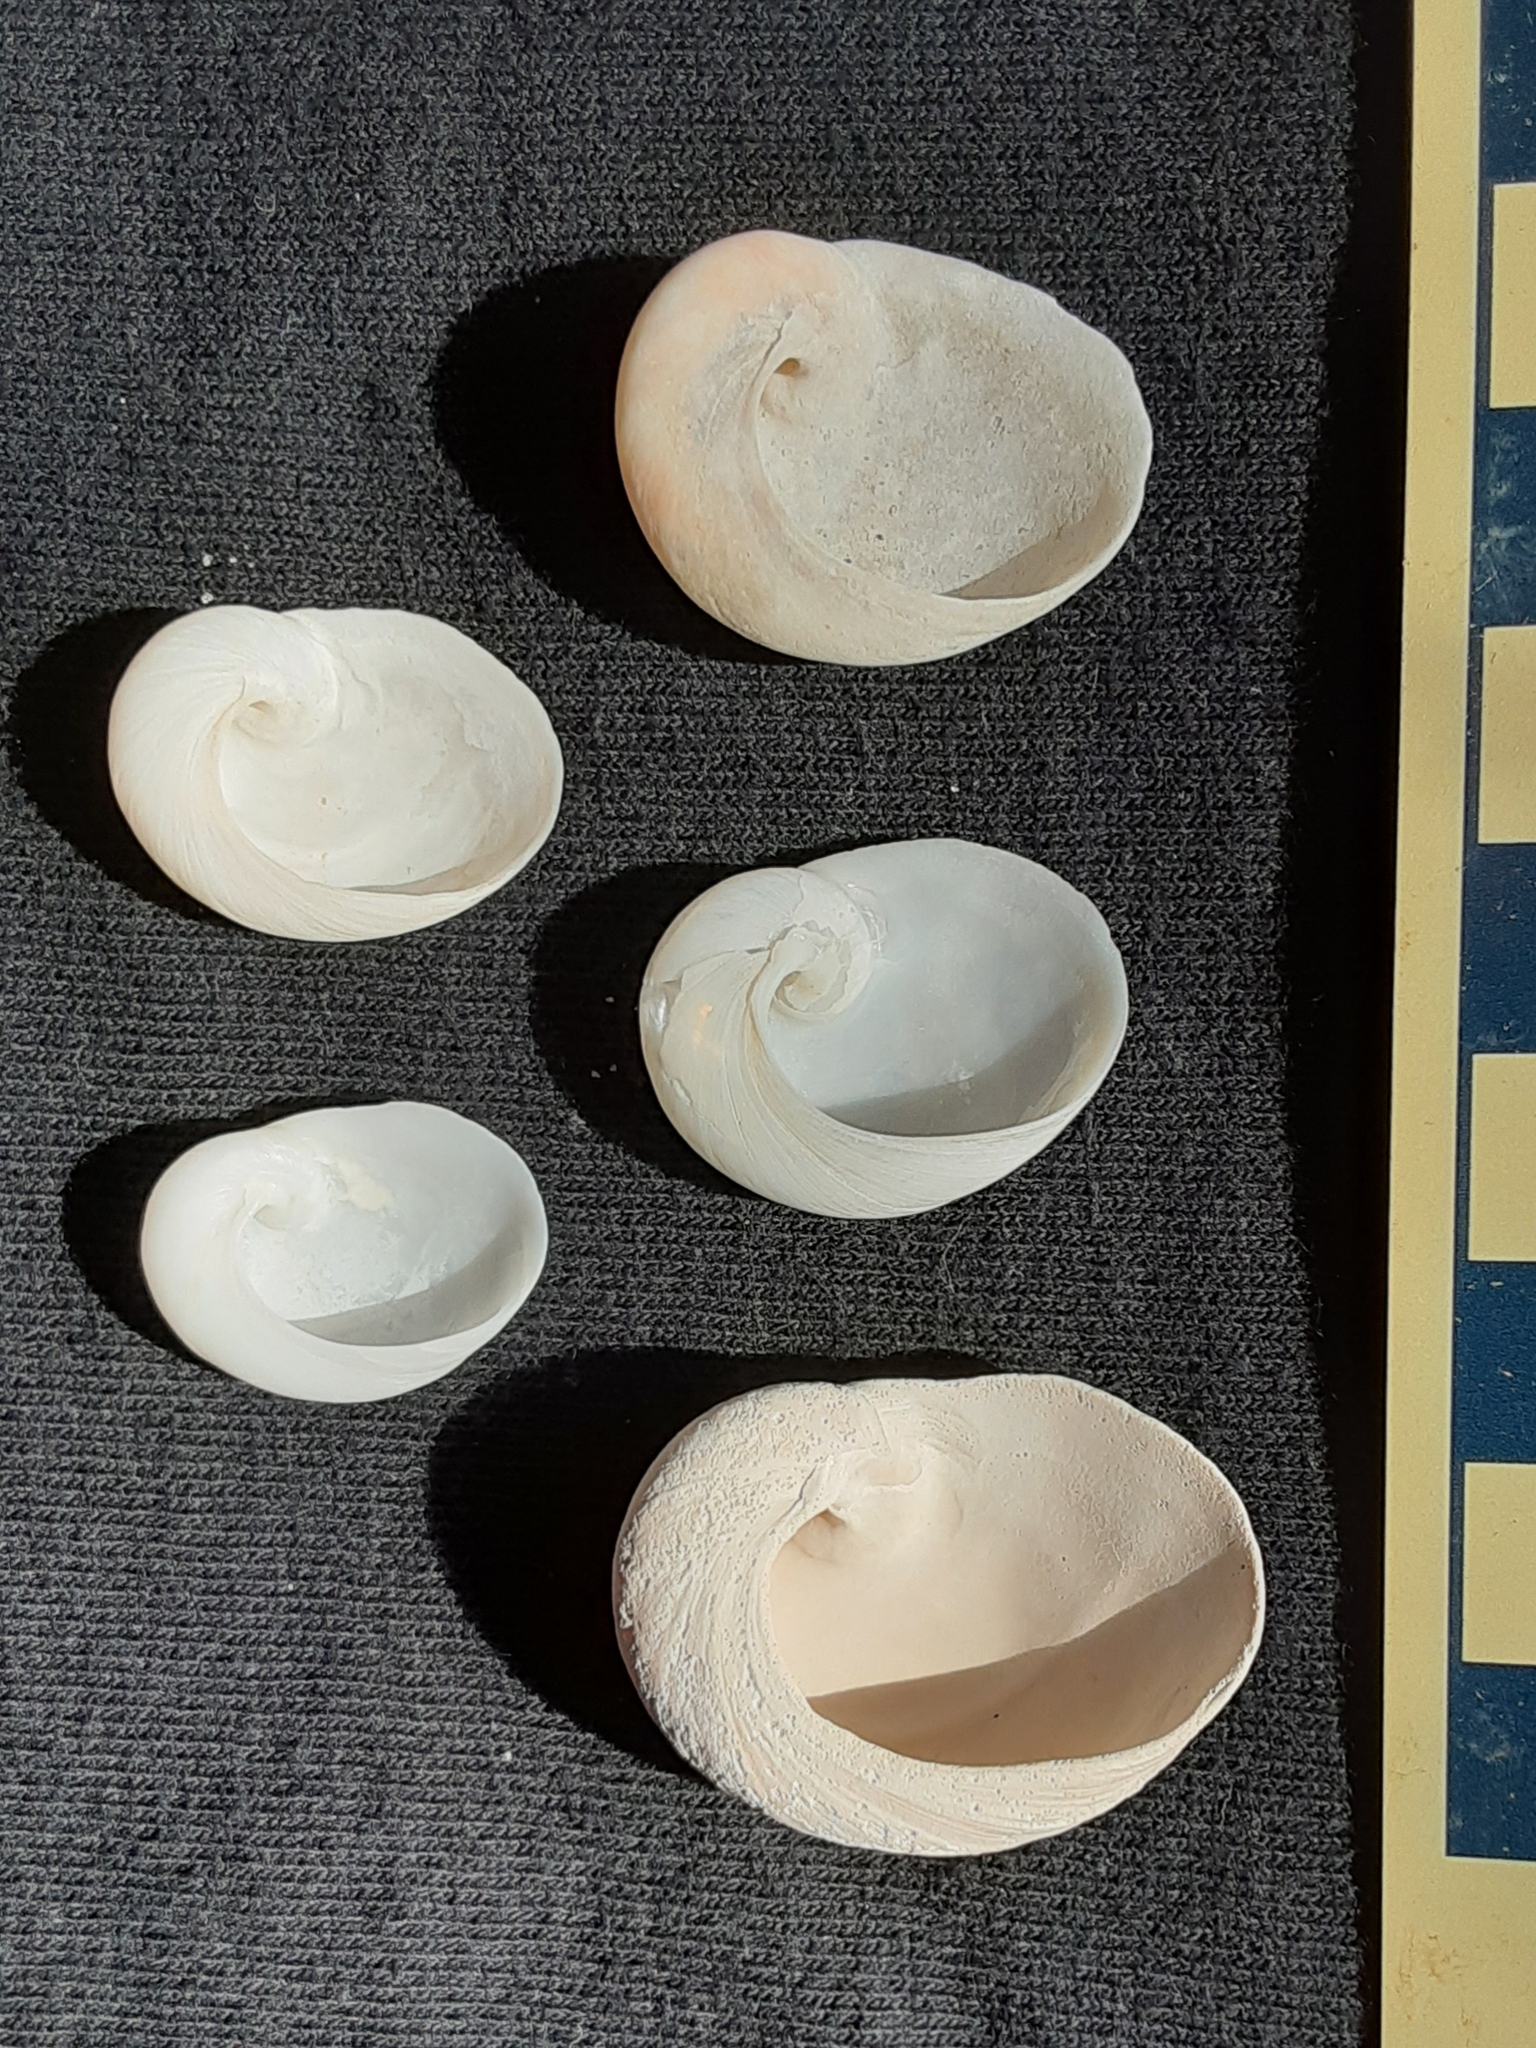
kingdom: Animalia
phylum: Mollusca
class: Gastropoda
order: Littorinimorpha
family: Naticidae
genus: Sinum
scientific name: Sinum perspectivum
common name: White baby ear
